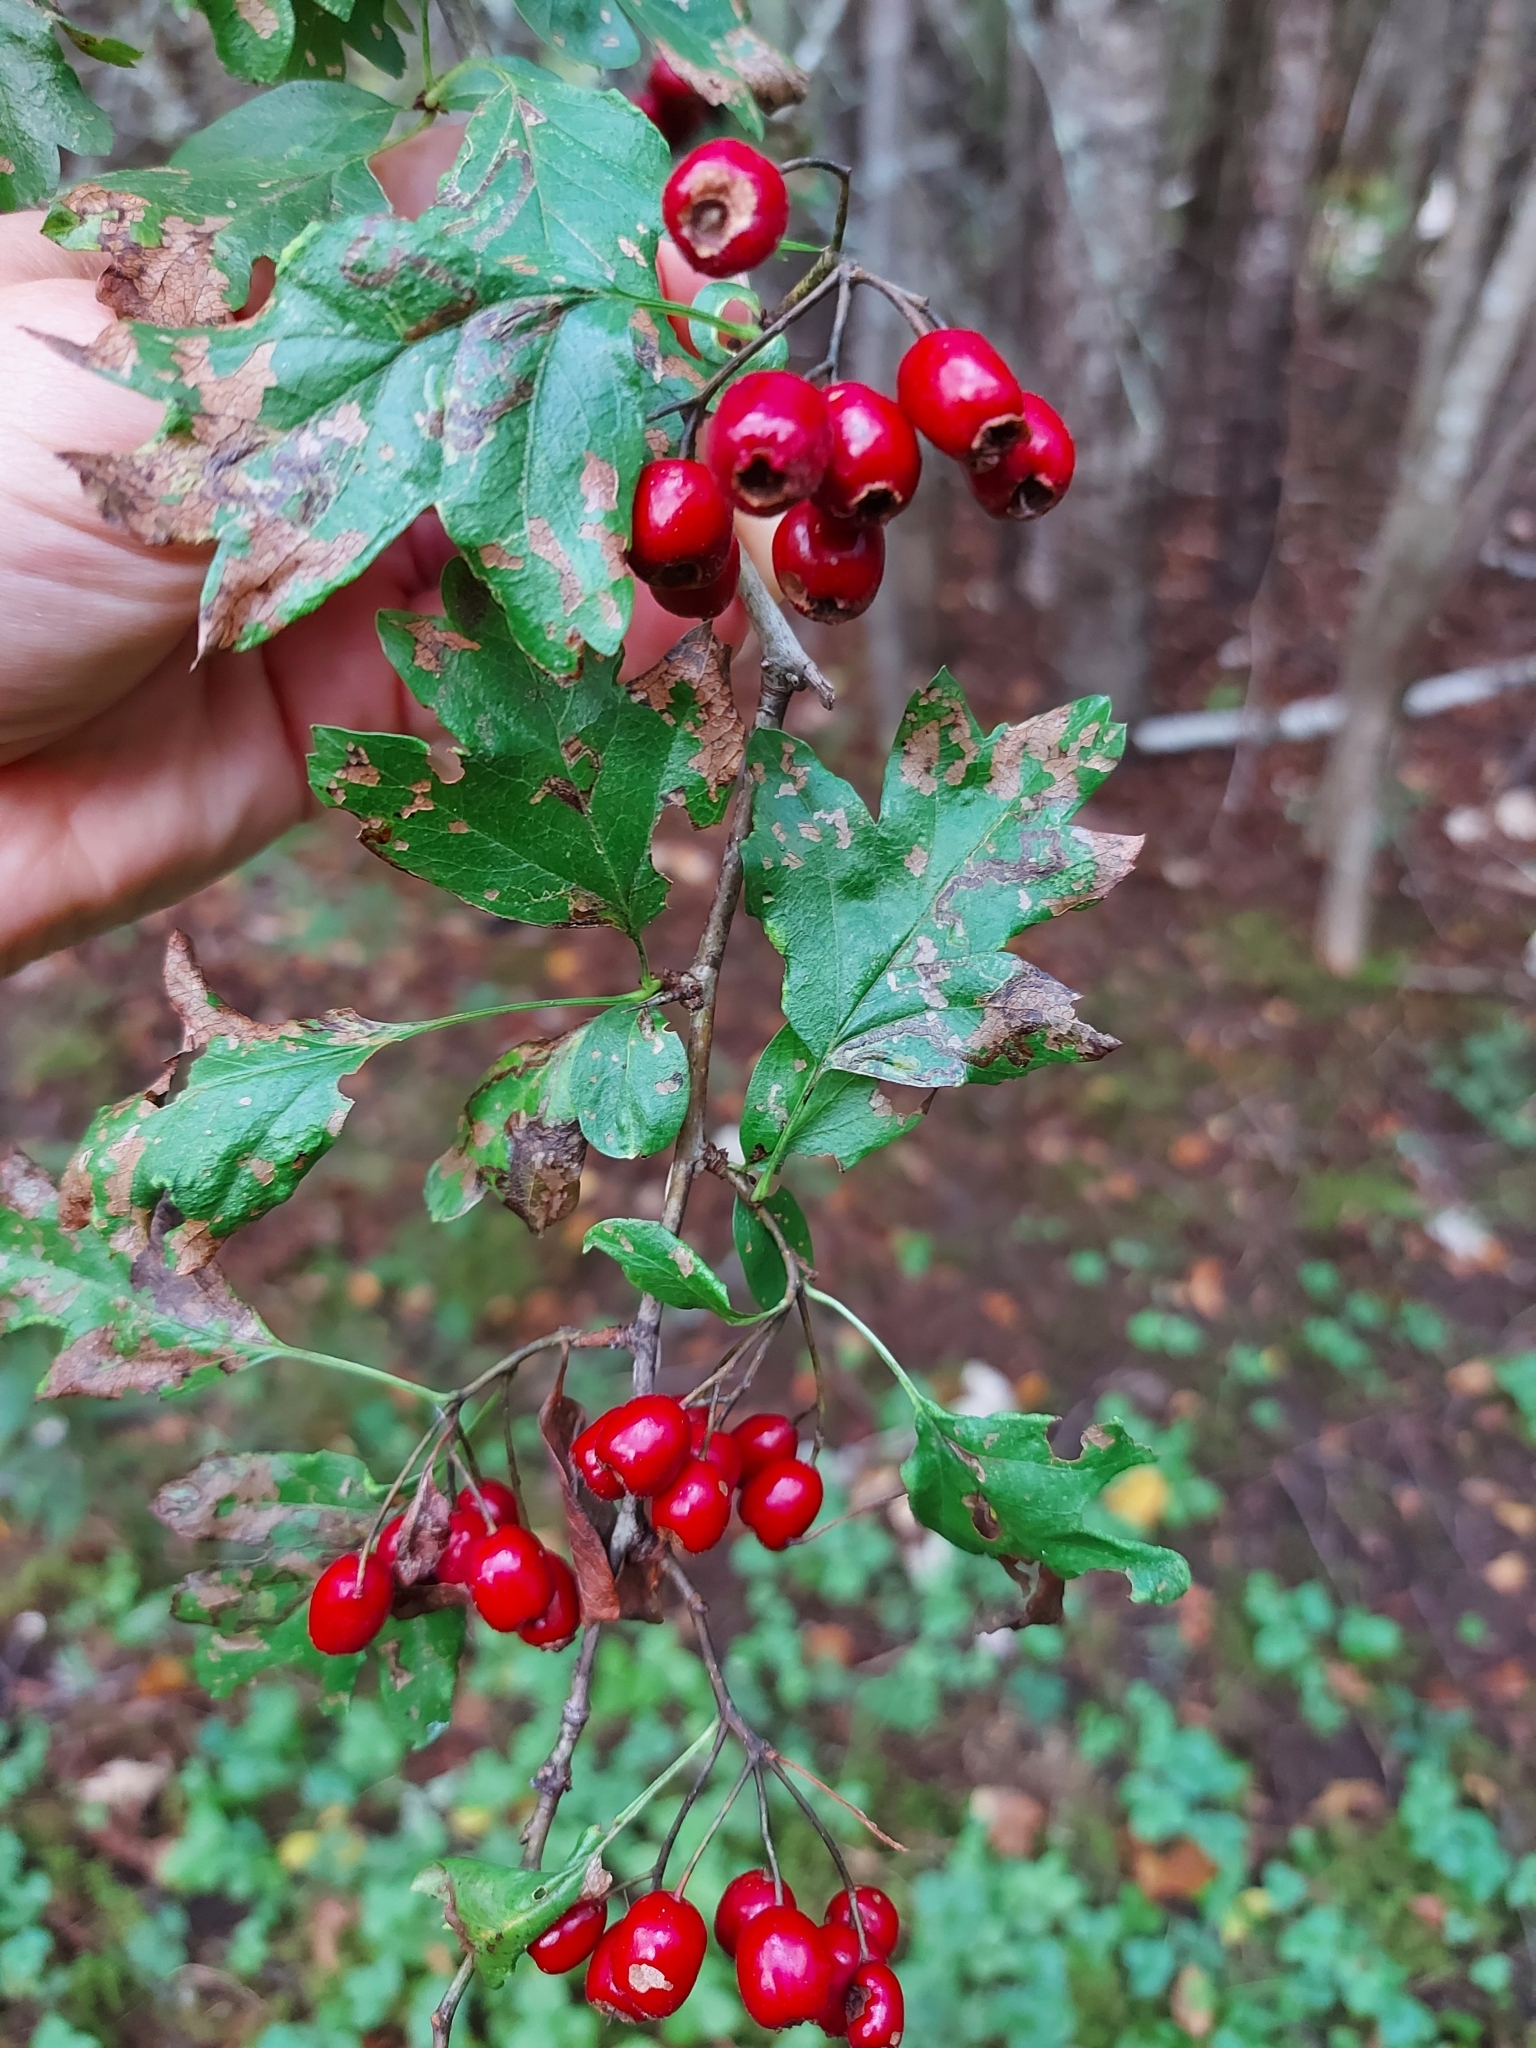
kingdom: Plantae
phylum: Tracheophyta
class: Magnoliopsida
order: Rosales
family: Rosaceae
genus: Crataegus
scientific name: Crataegus monogyna
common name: Hawthorn
